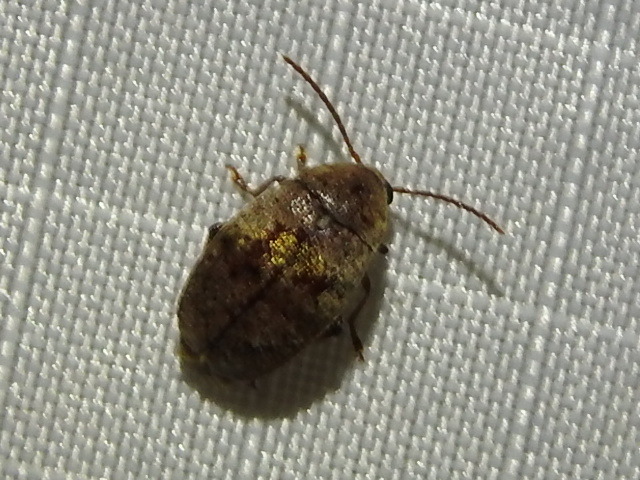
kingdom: Animalia
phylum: Arthropoda
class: Insecta
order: Coleoptera
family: Chrysomelidae
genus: Amblycerus
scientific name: Amblycerus robiniae
